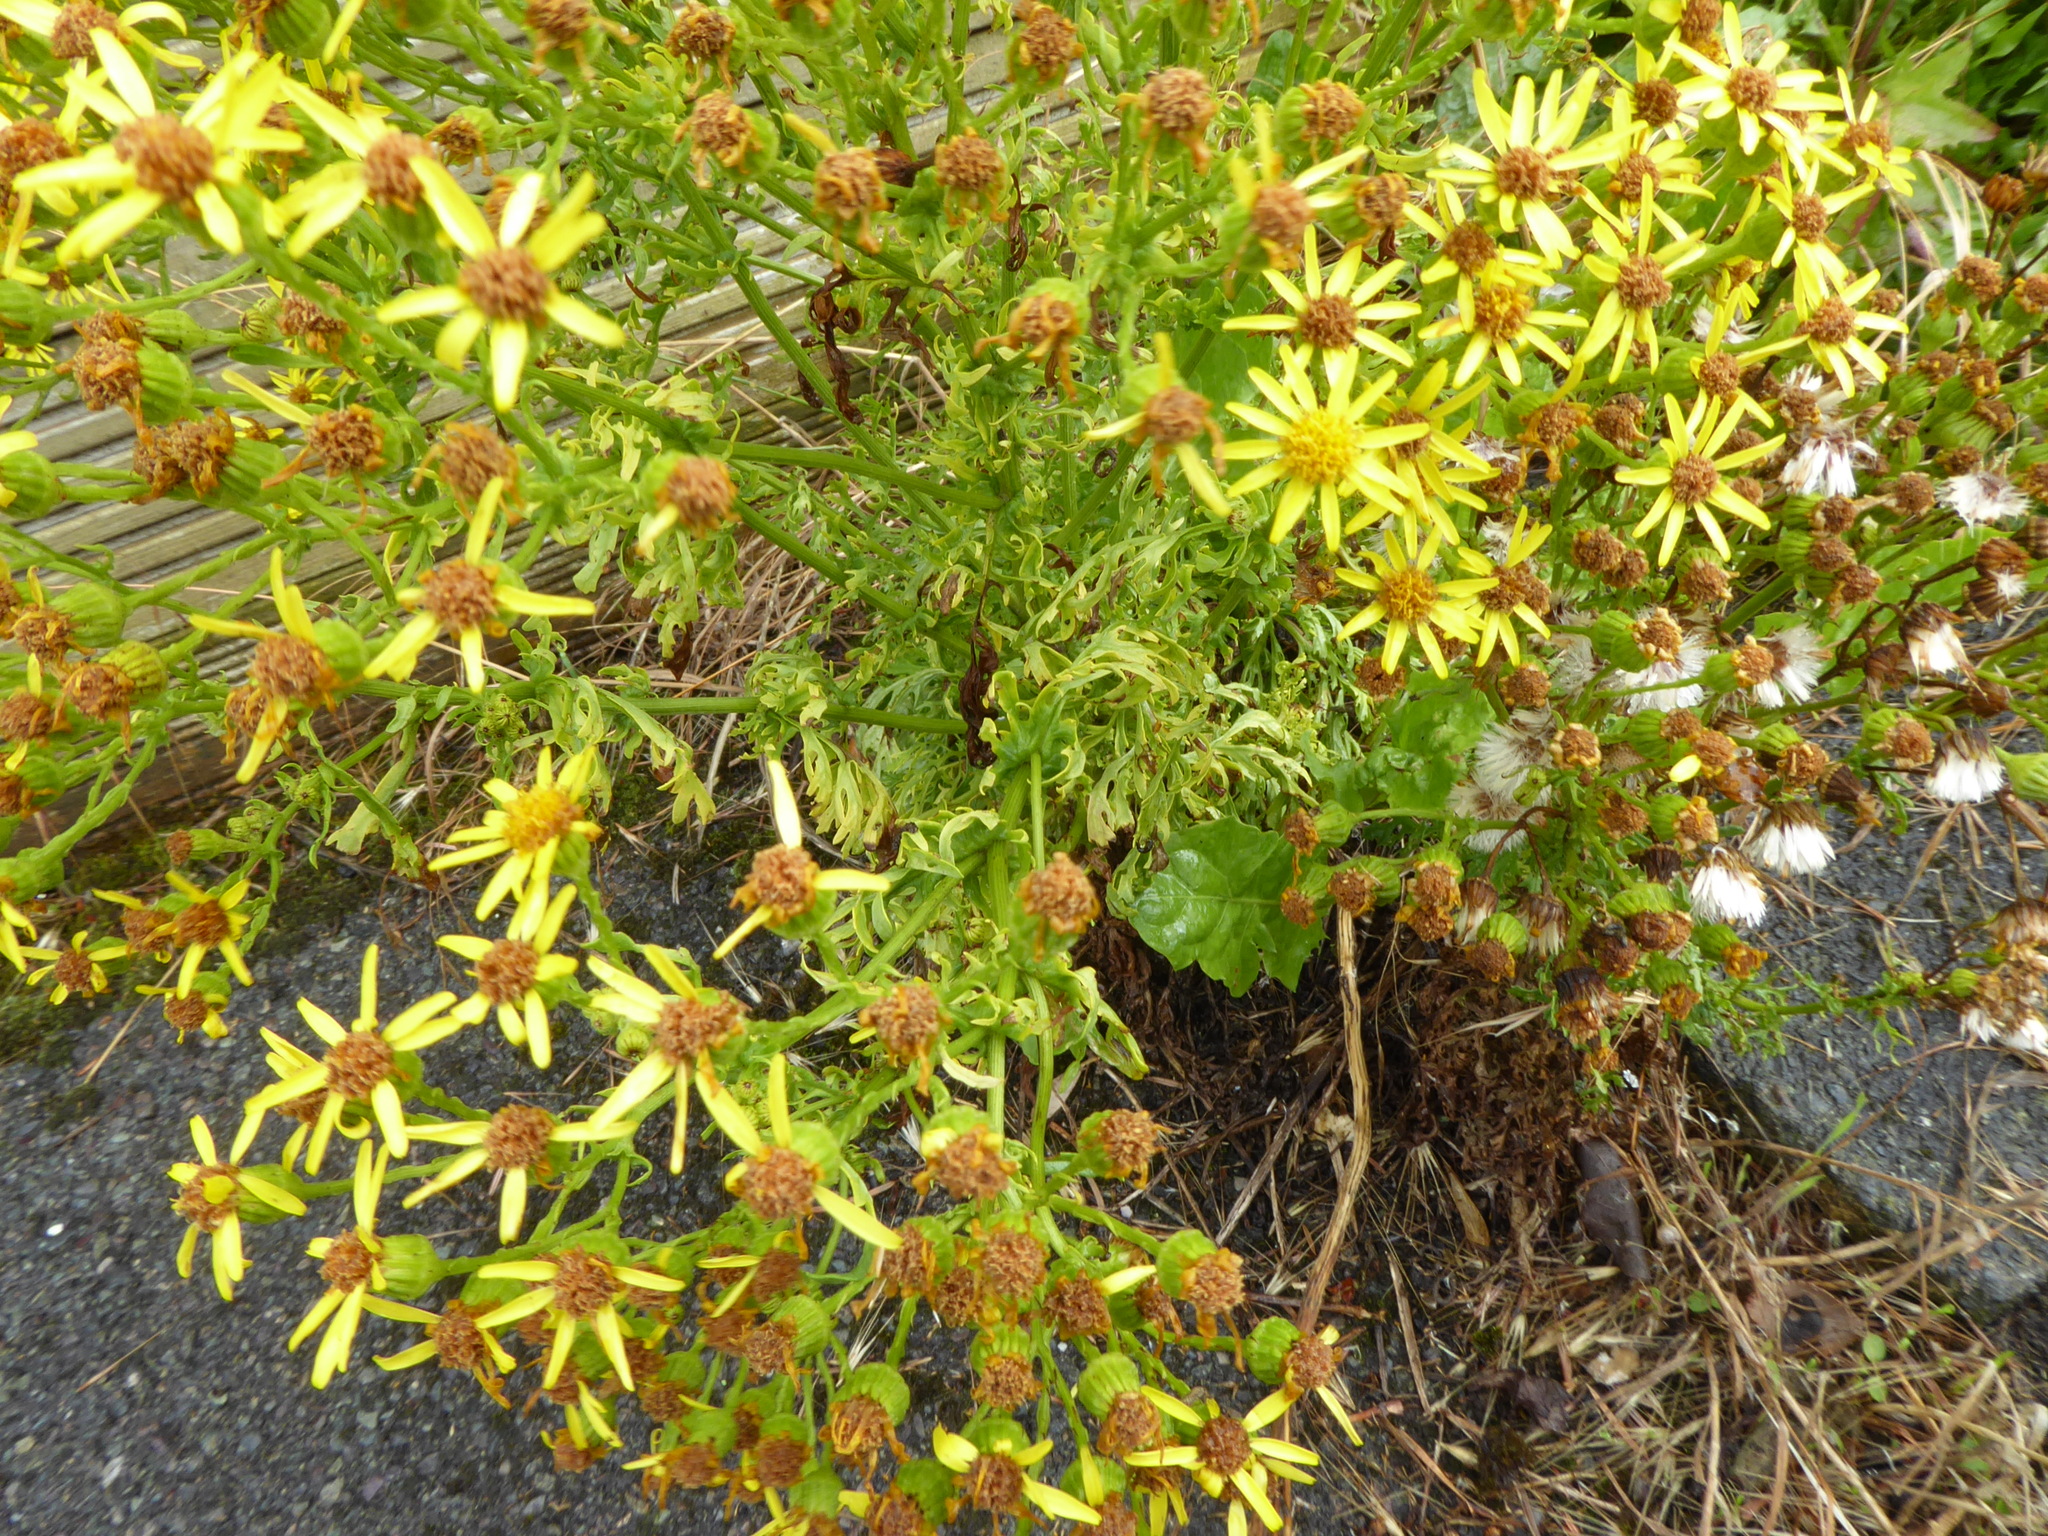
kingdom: Plantae
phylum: Tracheophyta
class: Magnoliopsida
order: Asterales
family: Asteraceae
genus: Jacobaea
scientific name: Jacobaea vulgaris
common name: Stinking willie
